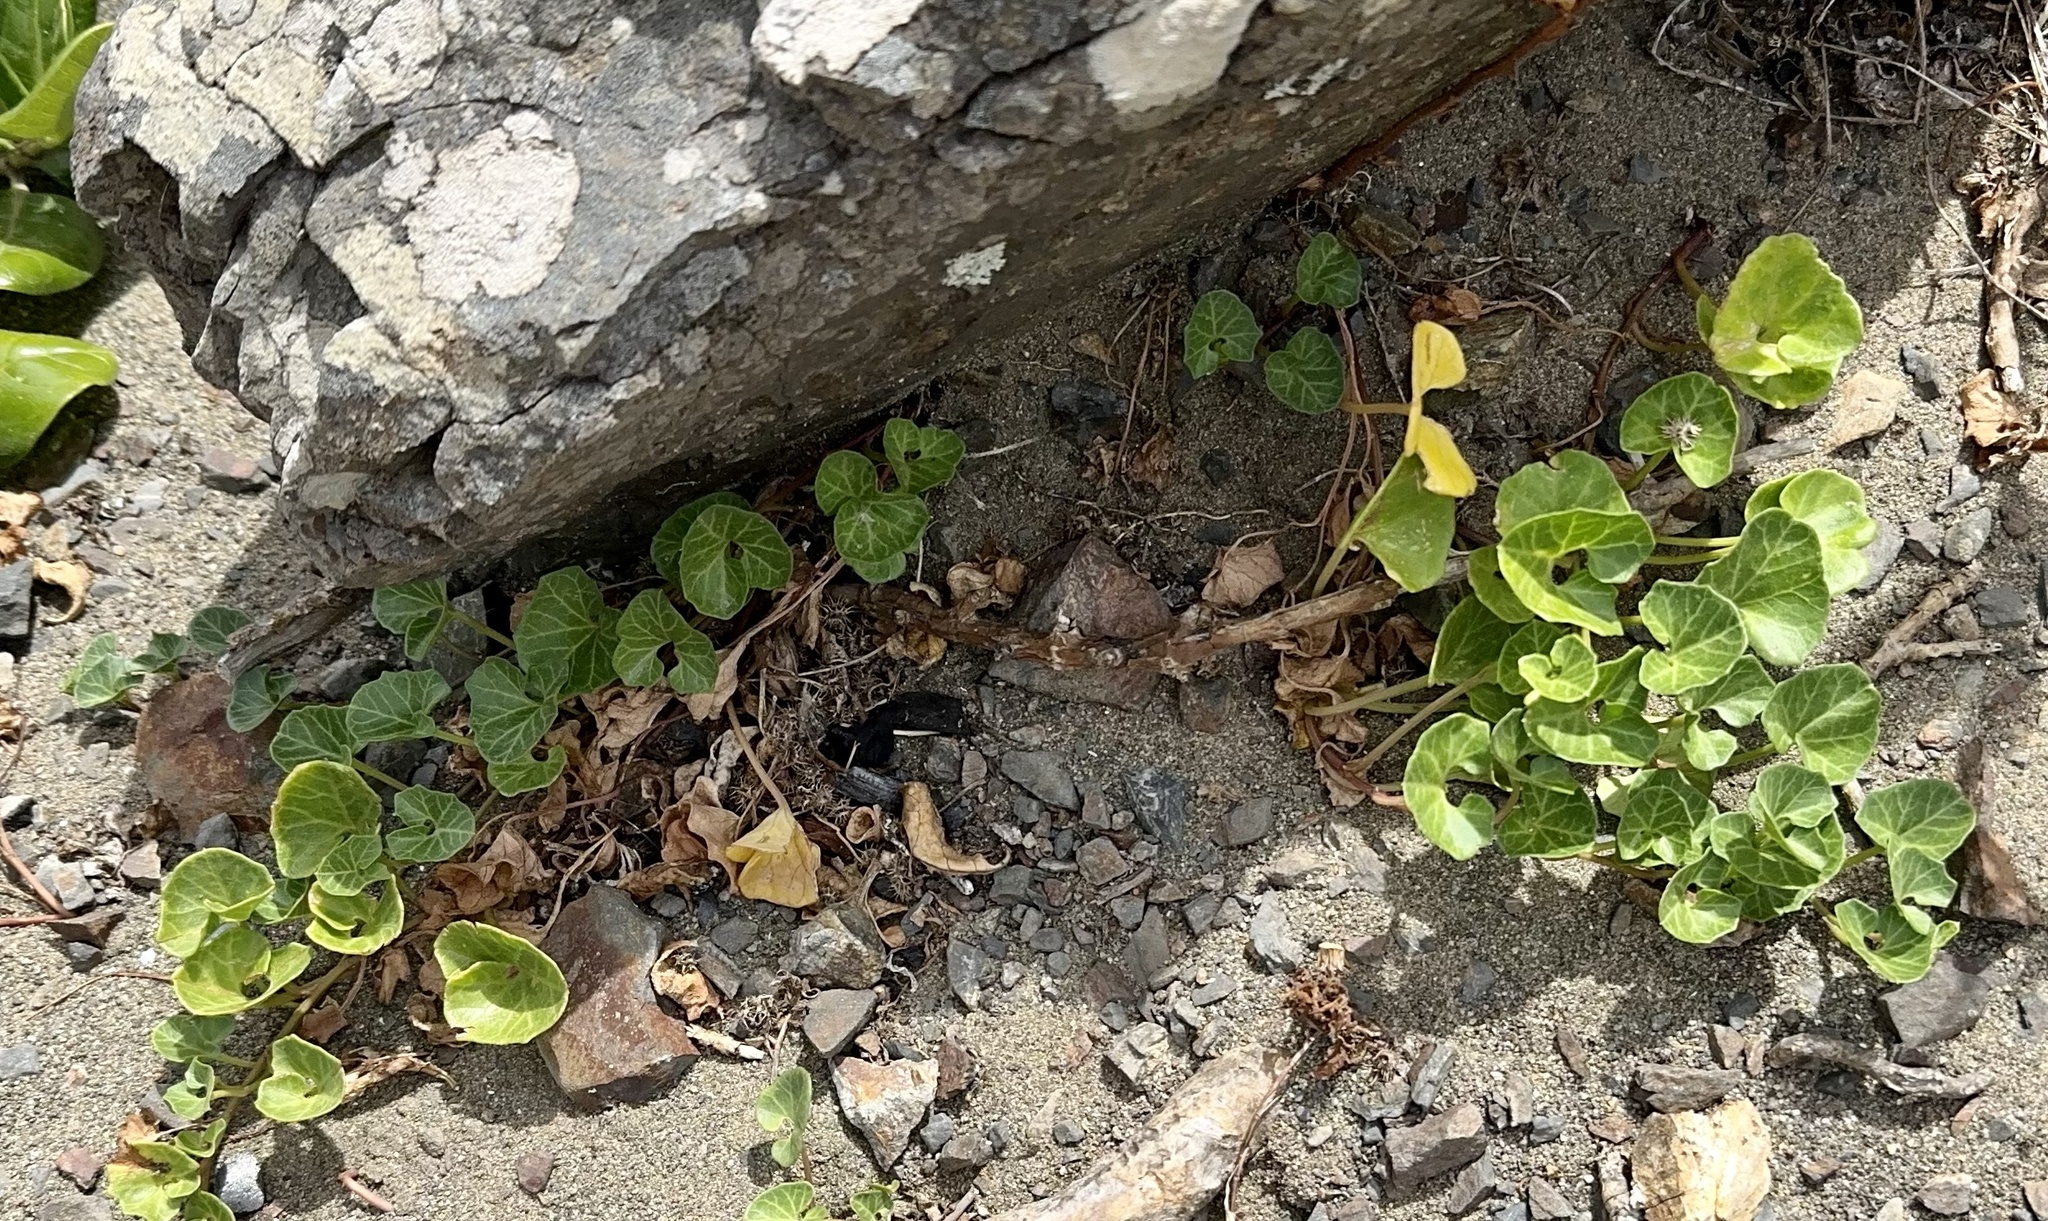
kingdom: Plantae
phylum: Tracheophyta
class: Magnoliopsida
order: Solanales
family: Convolvulaceae
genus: Calystegia
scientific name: Calystegia soldanella
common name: Sea bindweed
